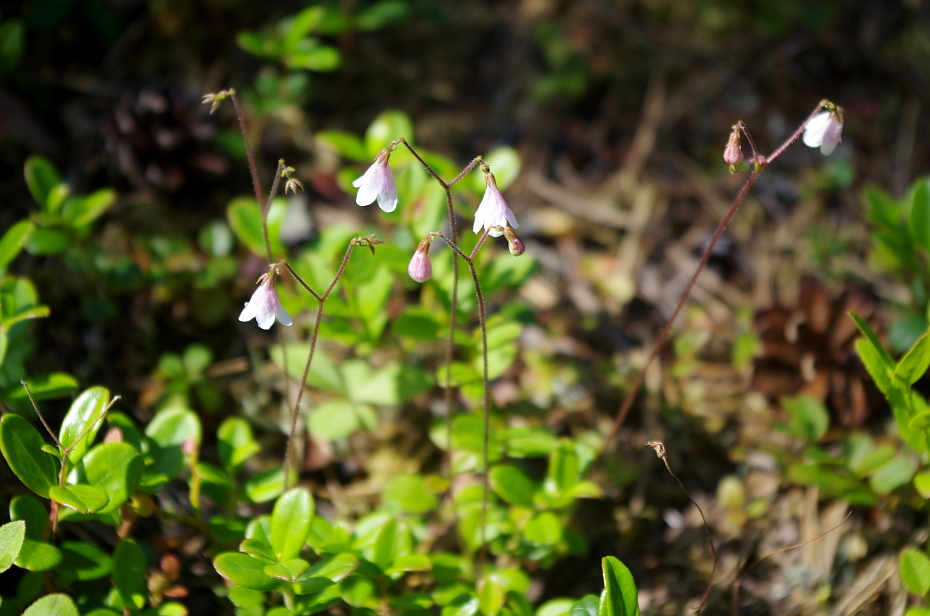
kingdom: Plantae
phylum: Tracheophyta
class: Magnoliopsida
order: Dipsacales
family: Caprifoliaceae
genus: Linnaea
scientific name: Linnaea borealis
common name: Twinflower
